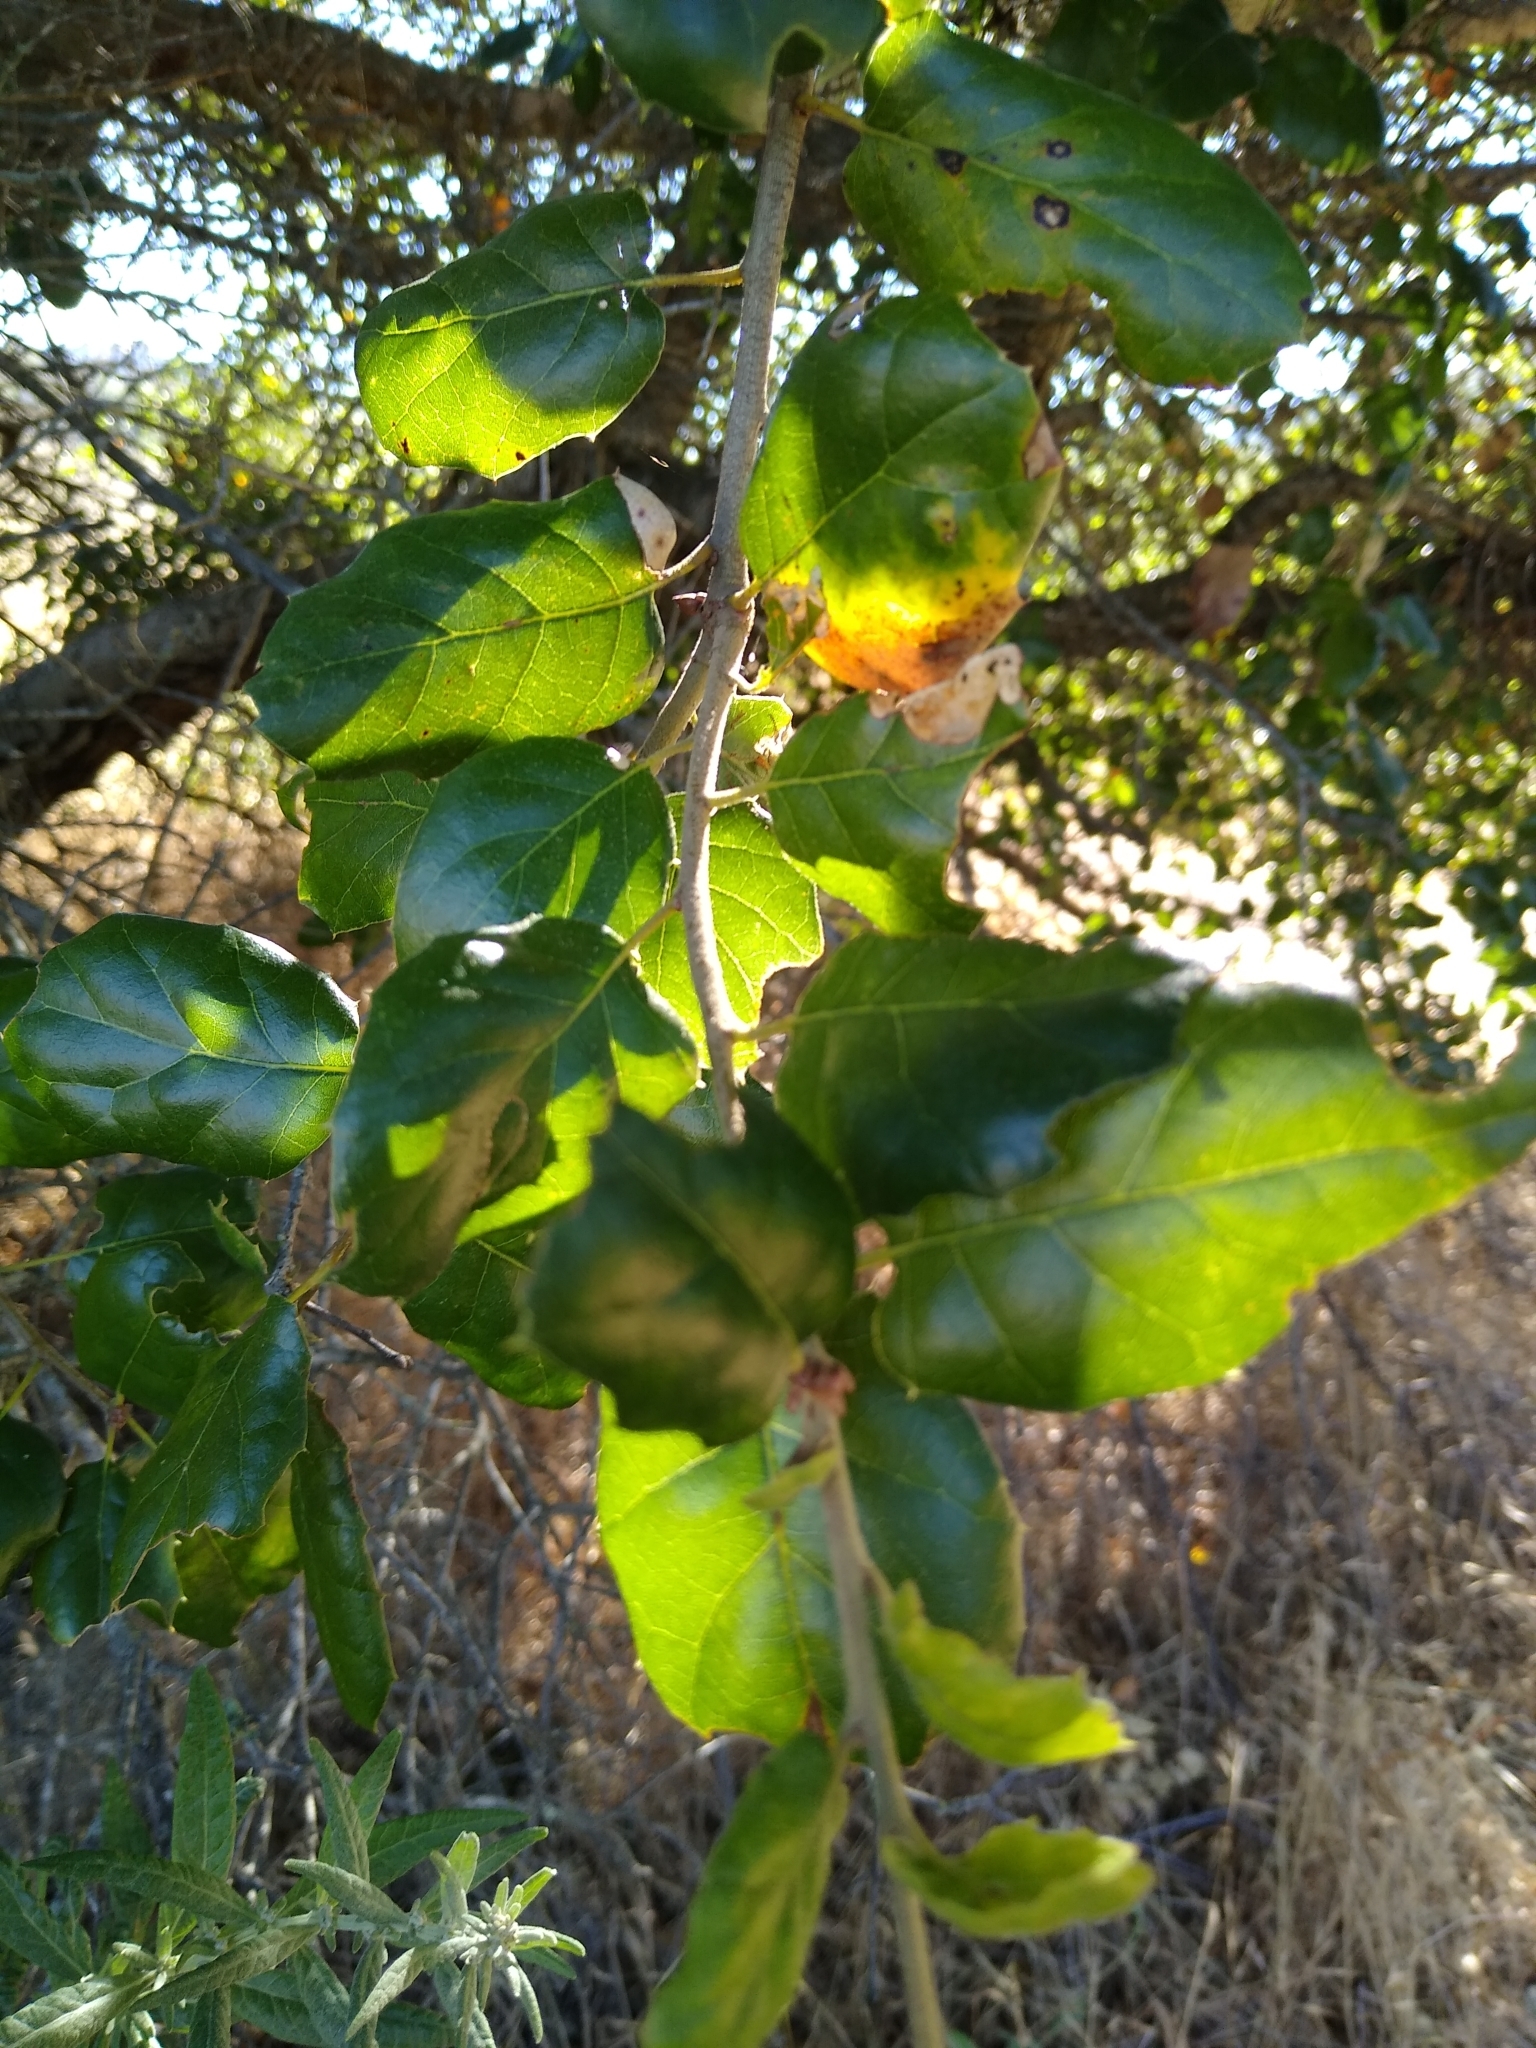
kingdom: Plantae
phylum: Tracheophyta
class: Magnoliopsida
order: Fagales
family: Fagaceae
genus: Quercus
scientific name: Quercus agrifolia
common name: California live oak
